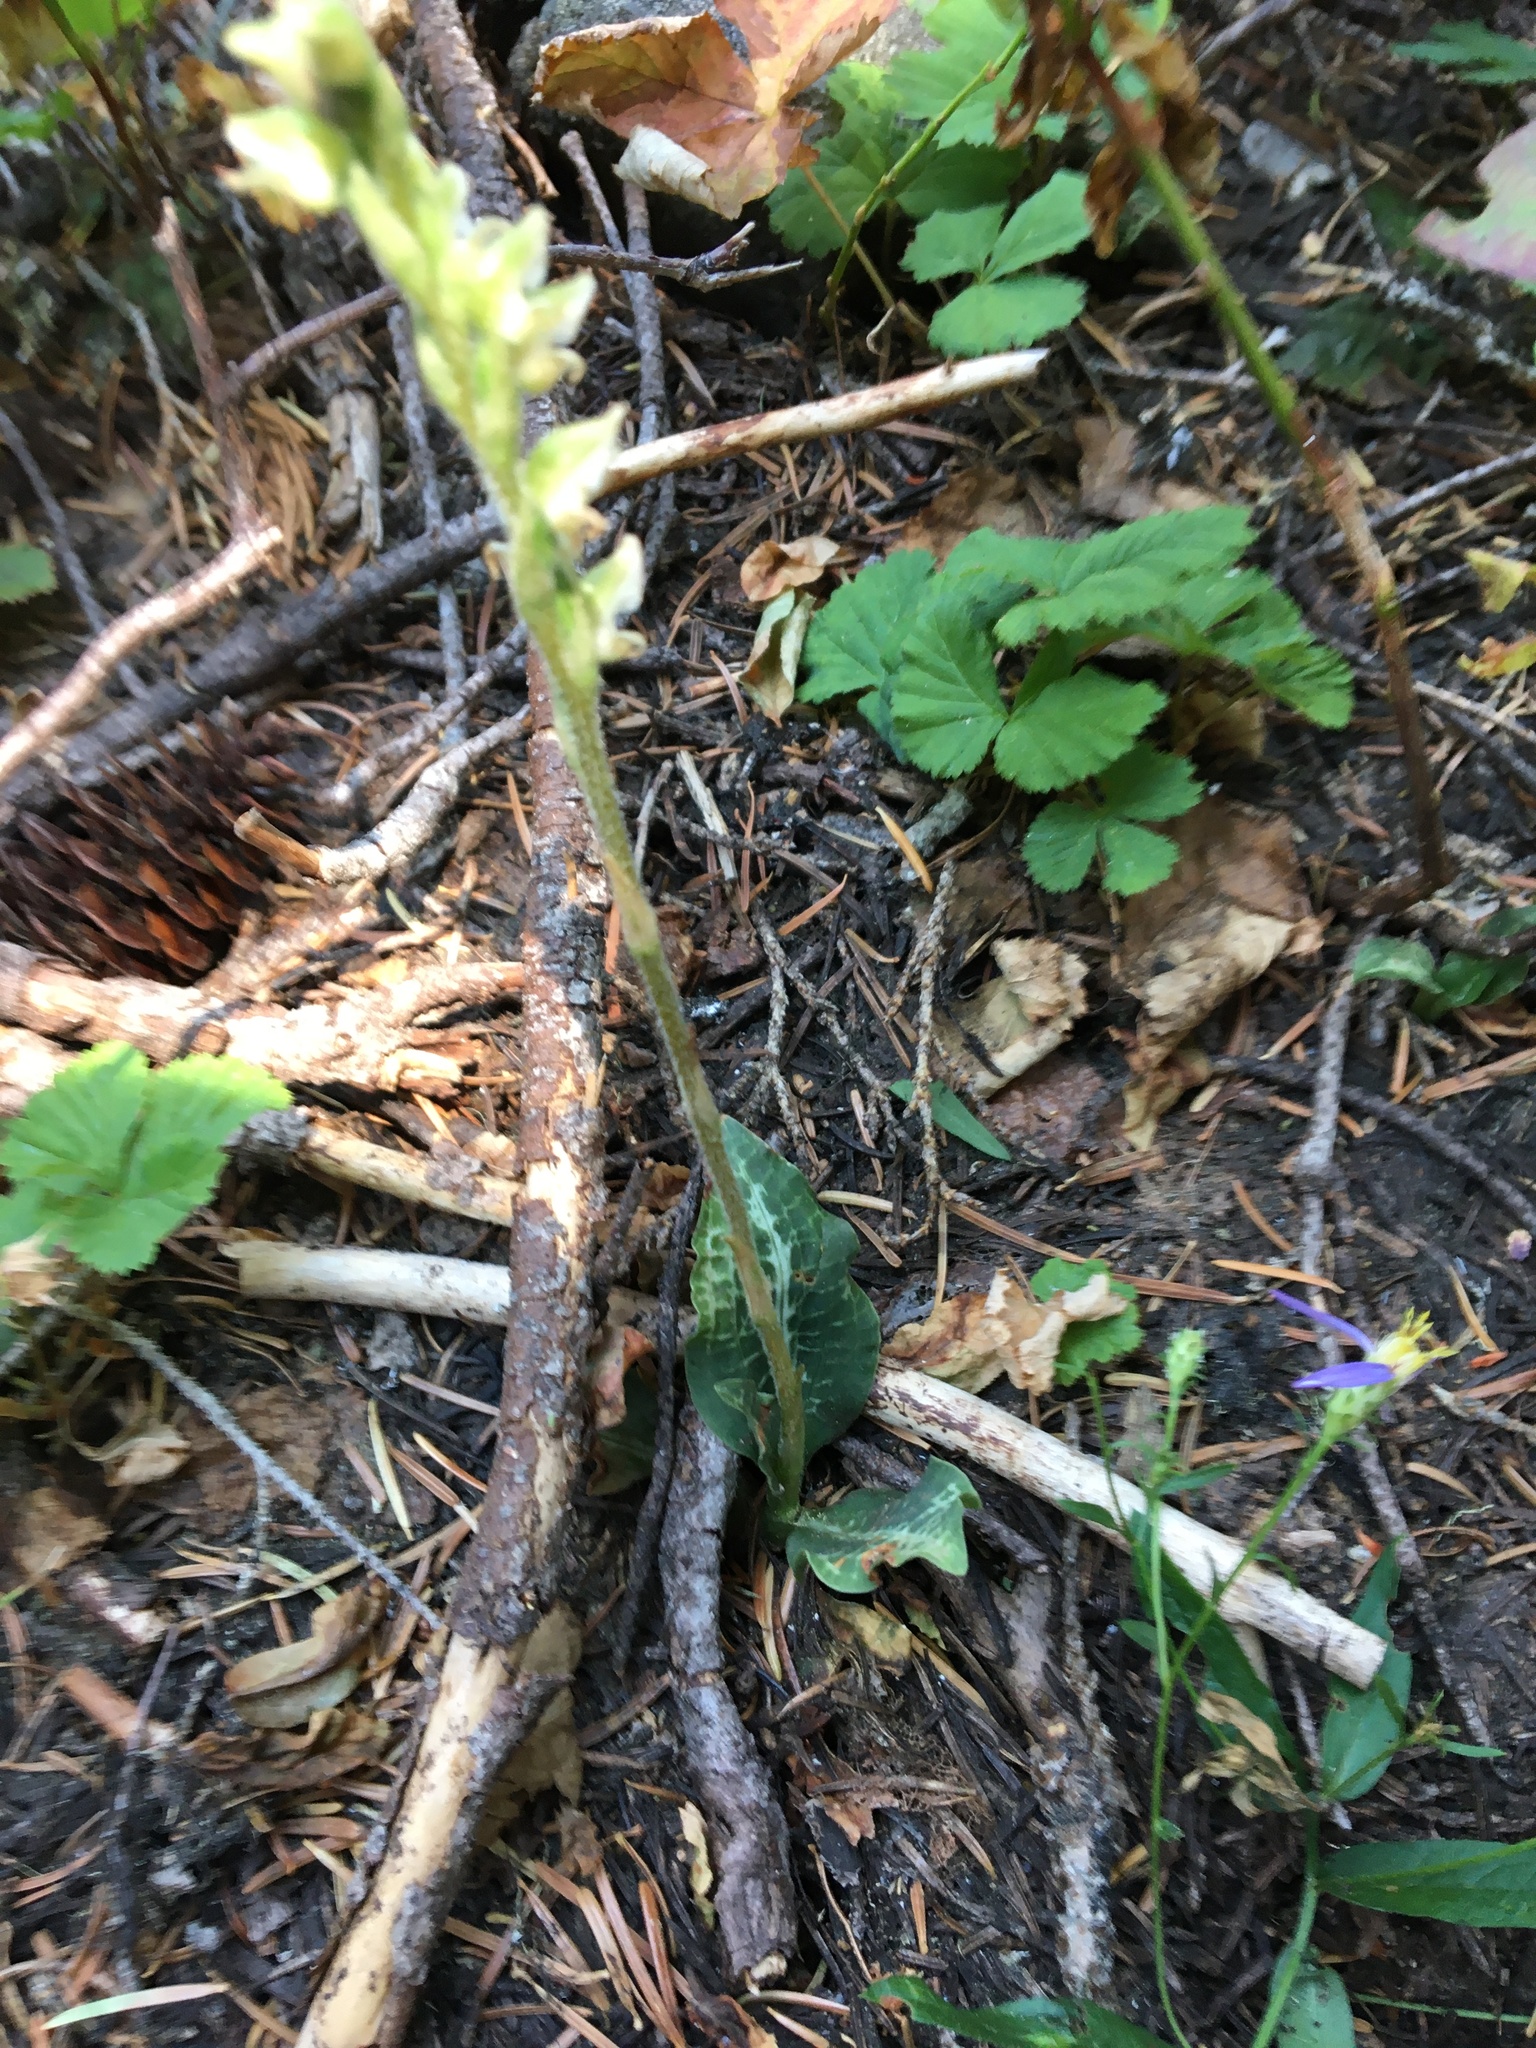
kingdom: Plantae
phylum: Tracheophyta
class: Liliopsida
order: Asparagales
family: Orchidaceae
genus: Goodyera
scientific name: Goodyera oblongifolia
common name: Giant rattlesnake-plantain
